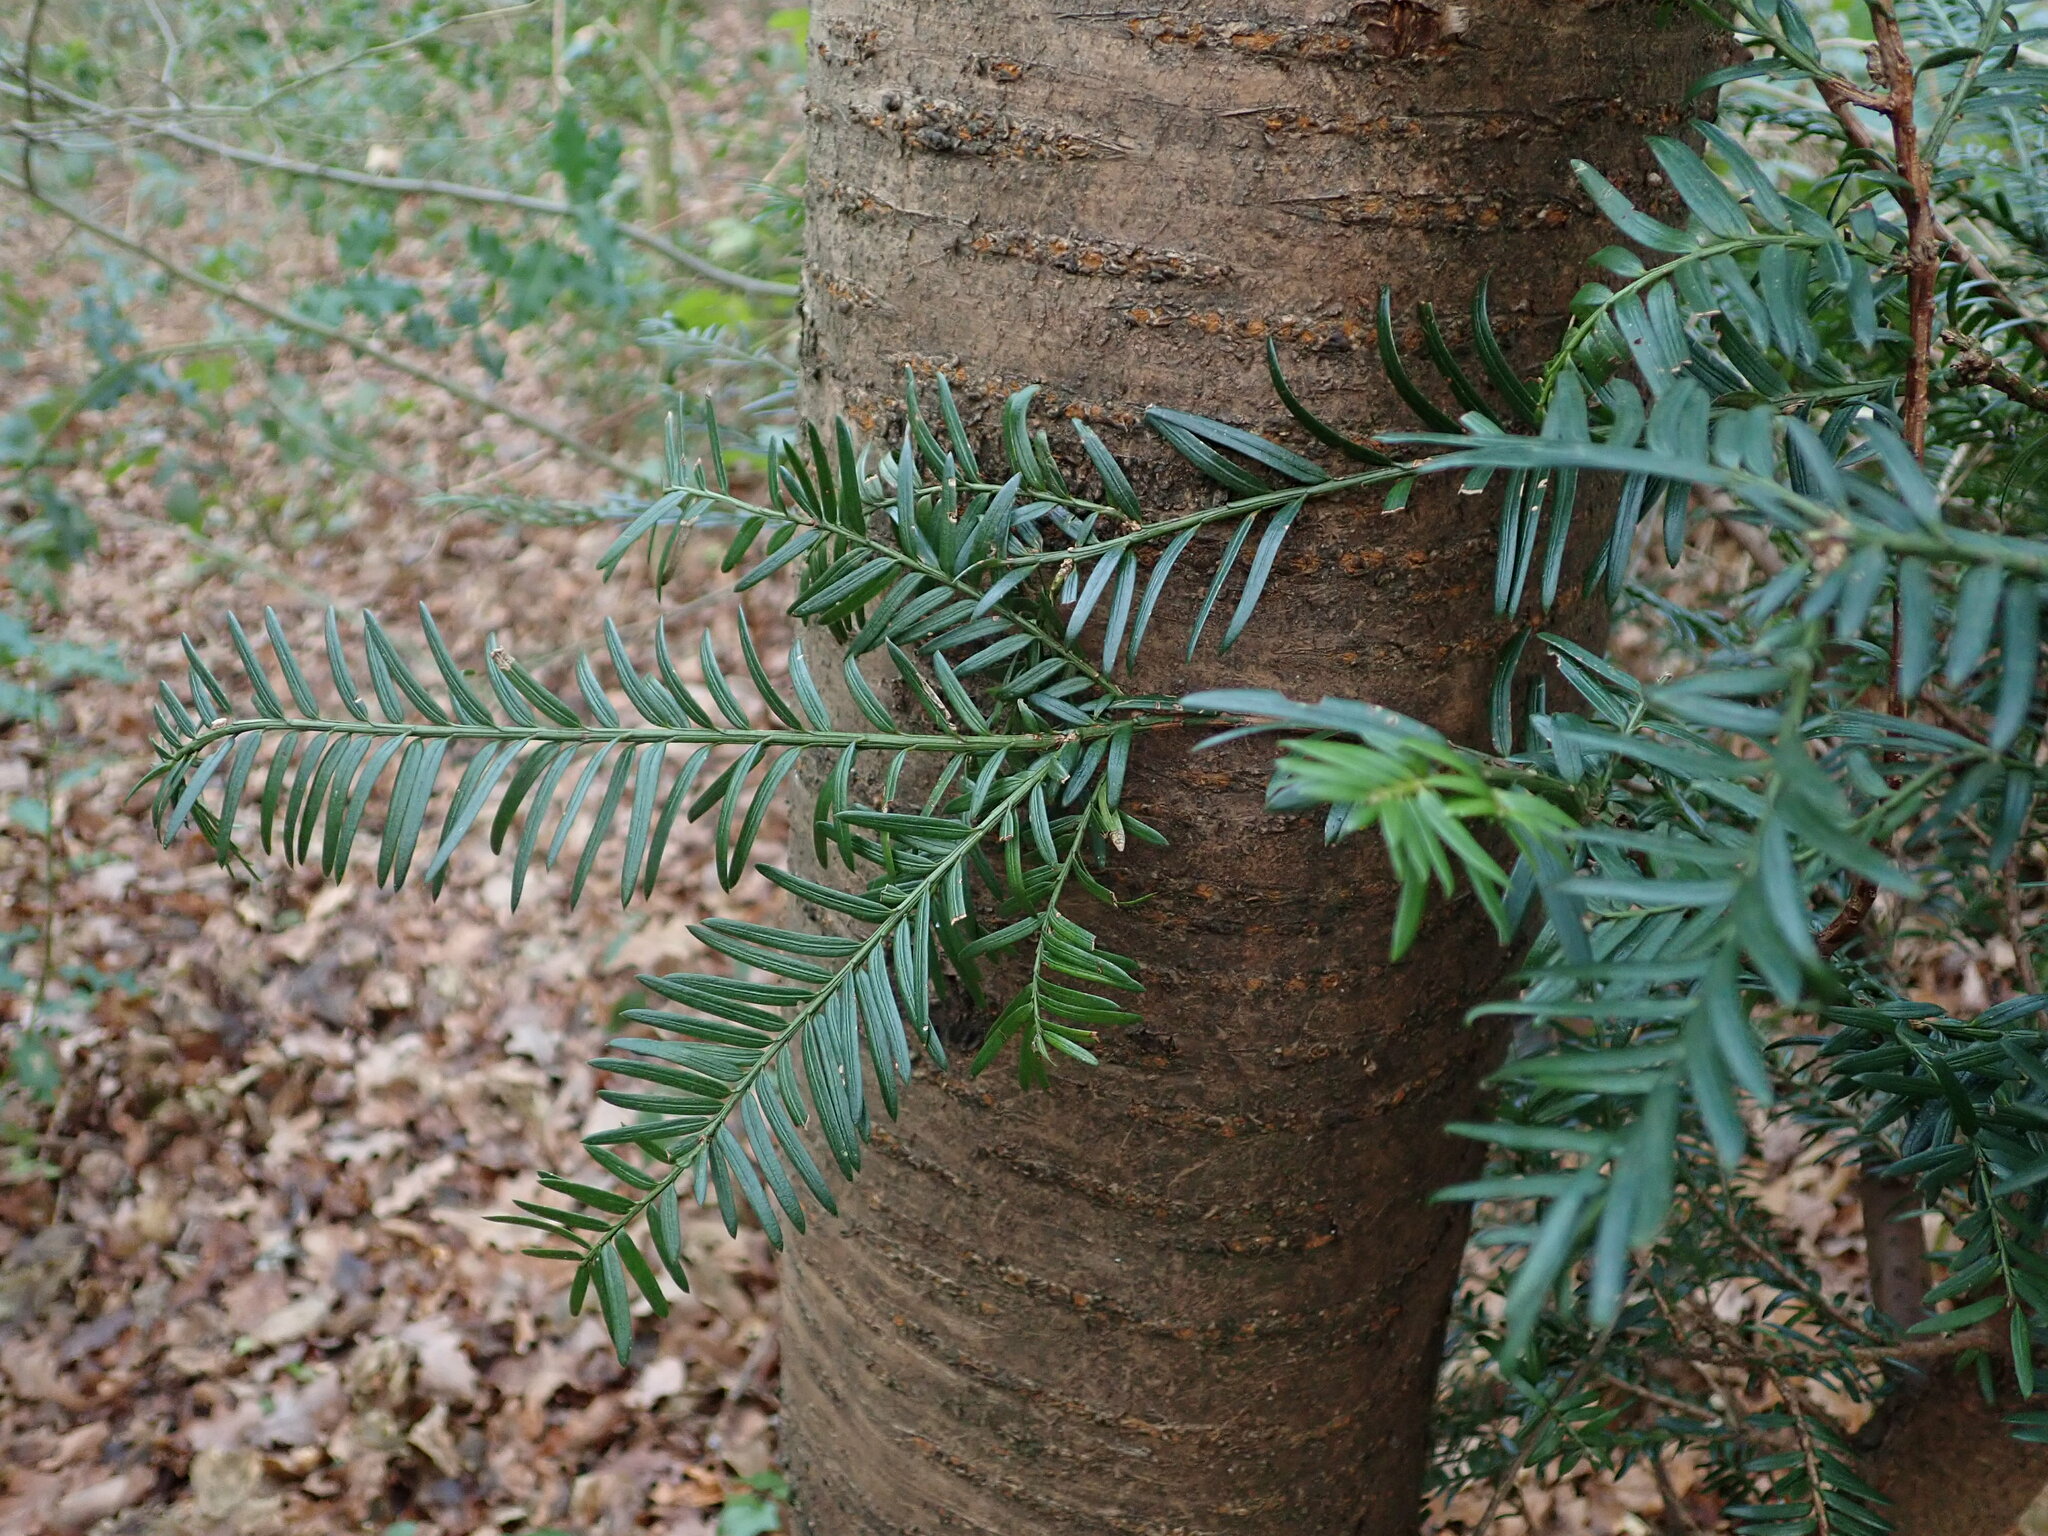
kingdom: Plantae
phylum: Tracheophyta
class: Pinopsida
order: Pinales
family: Taxaceae
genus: Taxus
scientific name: Taxus baccata
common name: Yew
